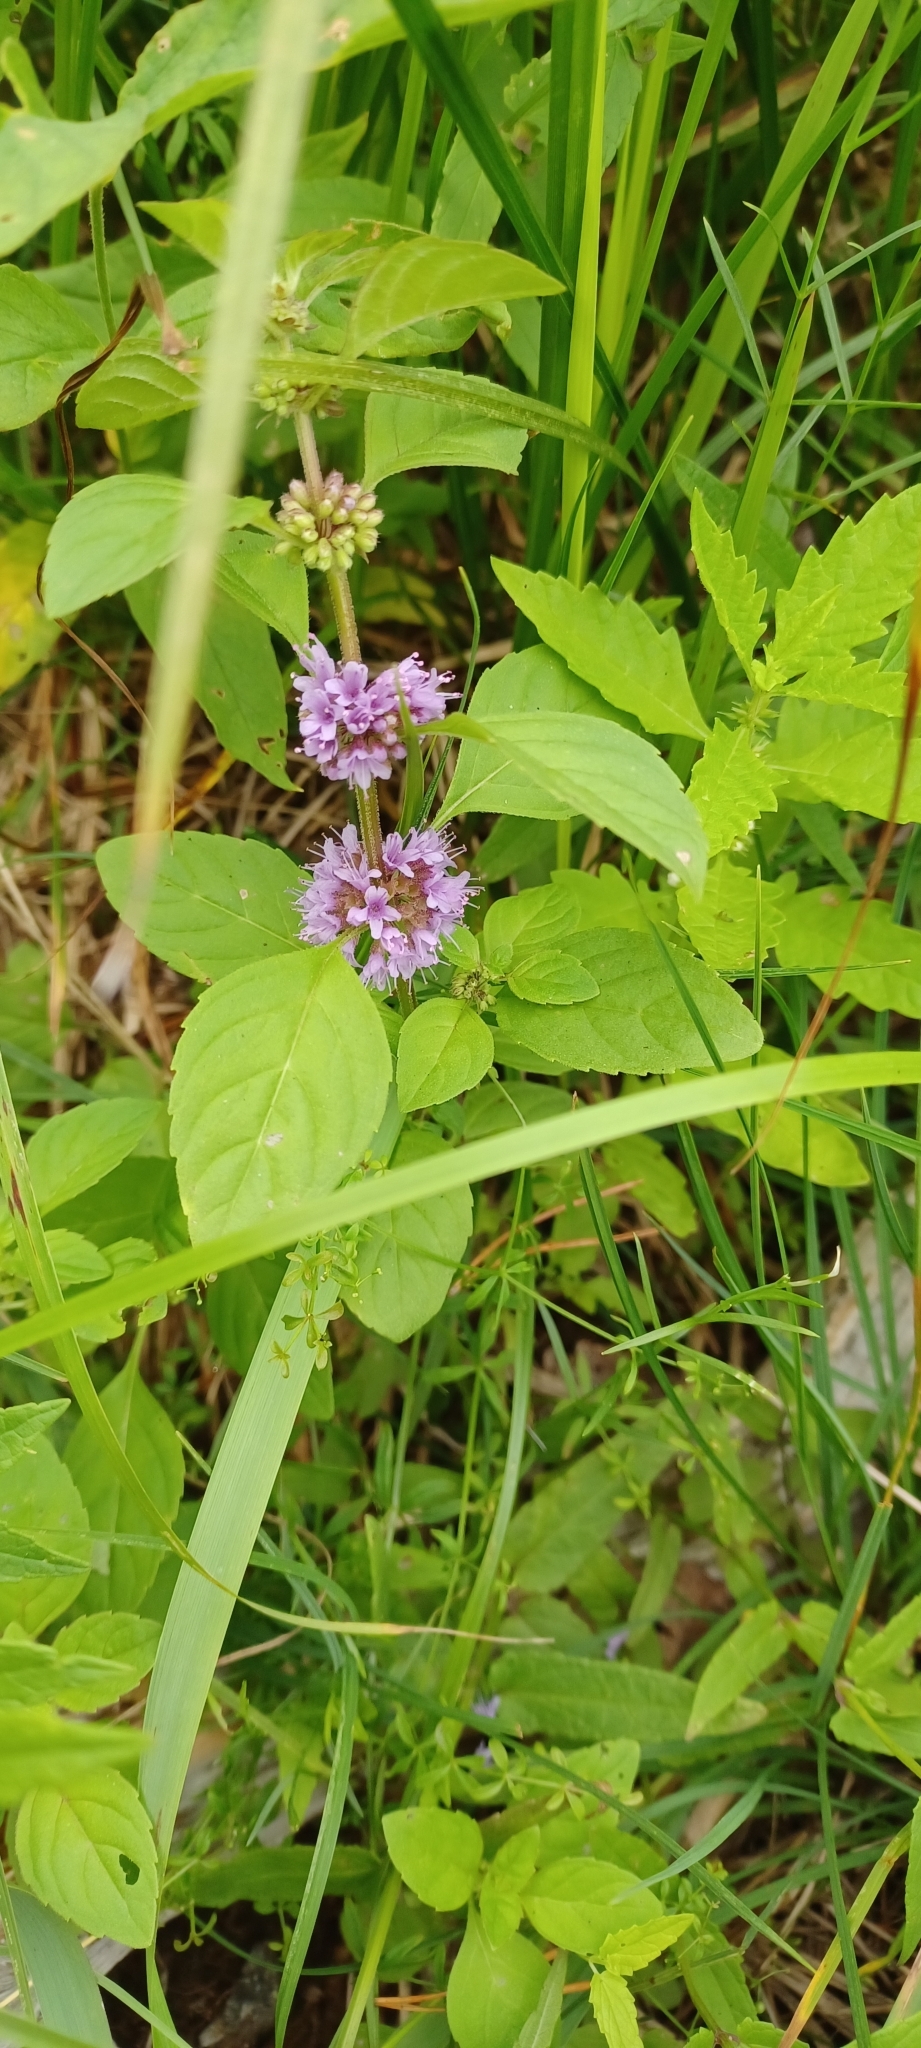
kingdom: Plantae
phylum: Tracheophyta
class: Magnoliopsida
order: Lamiales
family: Lamiaceae
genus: Mentha
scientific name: Mentha arvensis
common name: Corn mint
